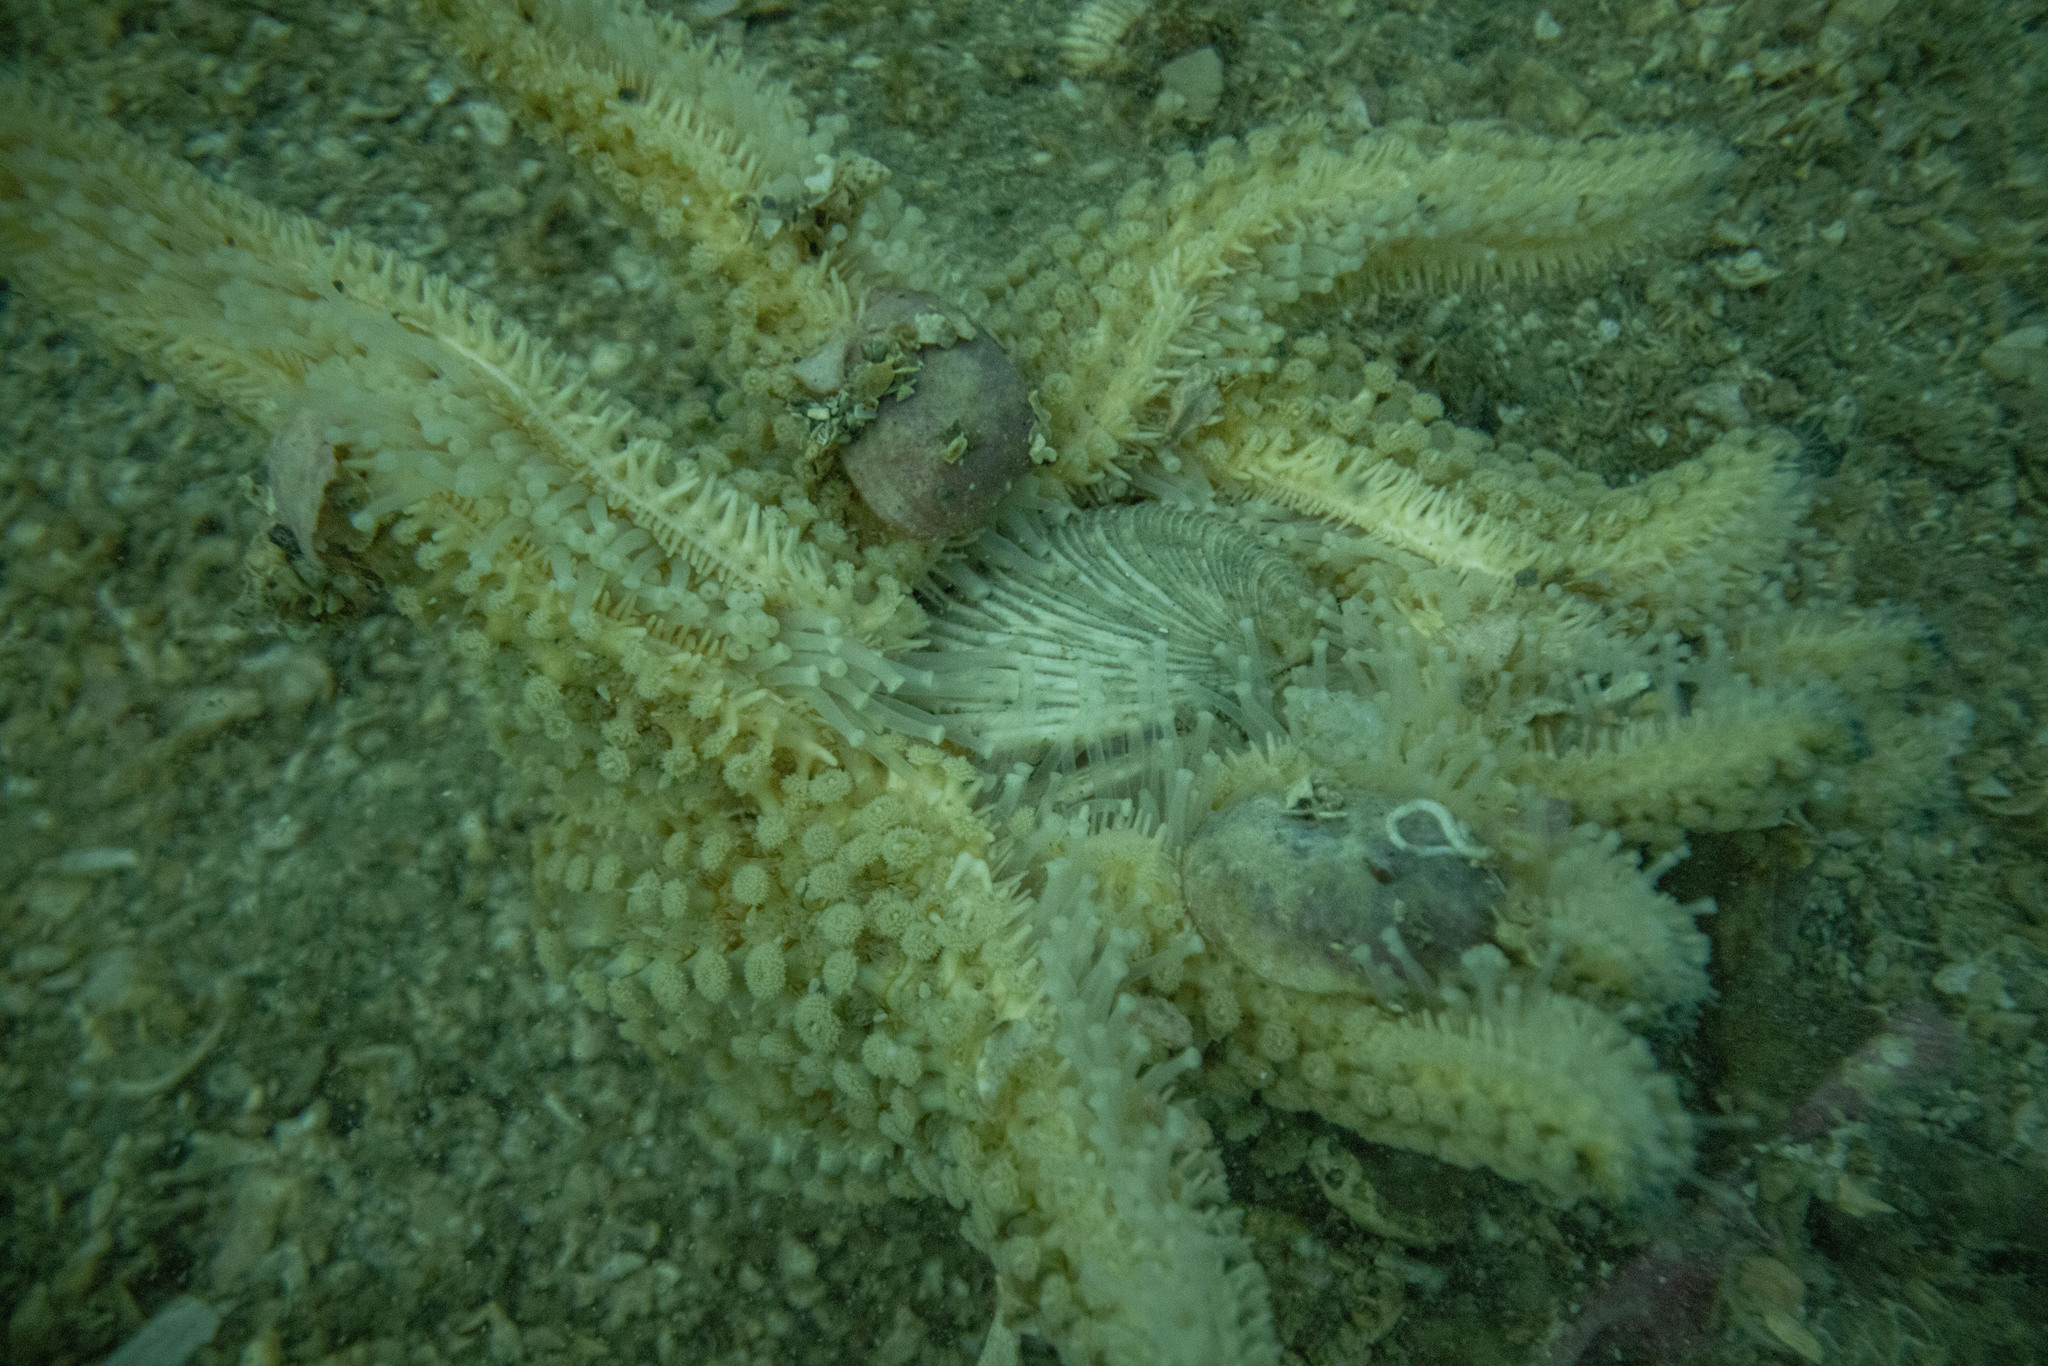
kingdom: Animalia
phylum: Echinodermata
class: Asteroidea
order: Forcipulatida
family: Asteriidae
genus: Coscinasterias
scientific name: Coscinasterias muricata
